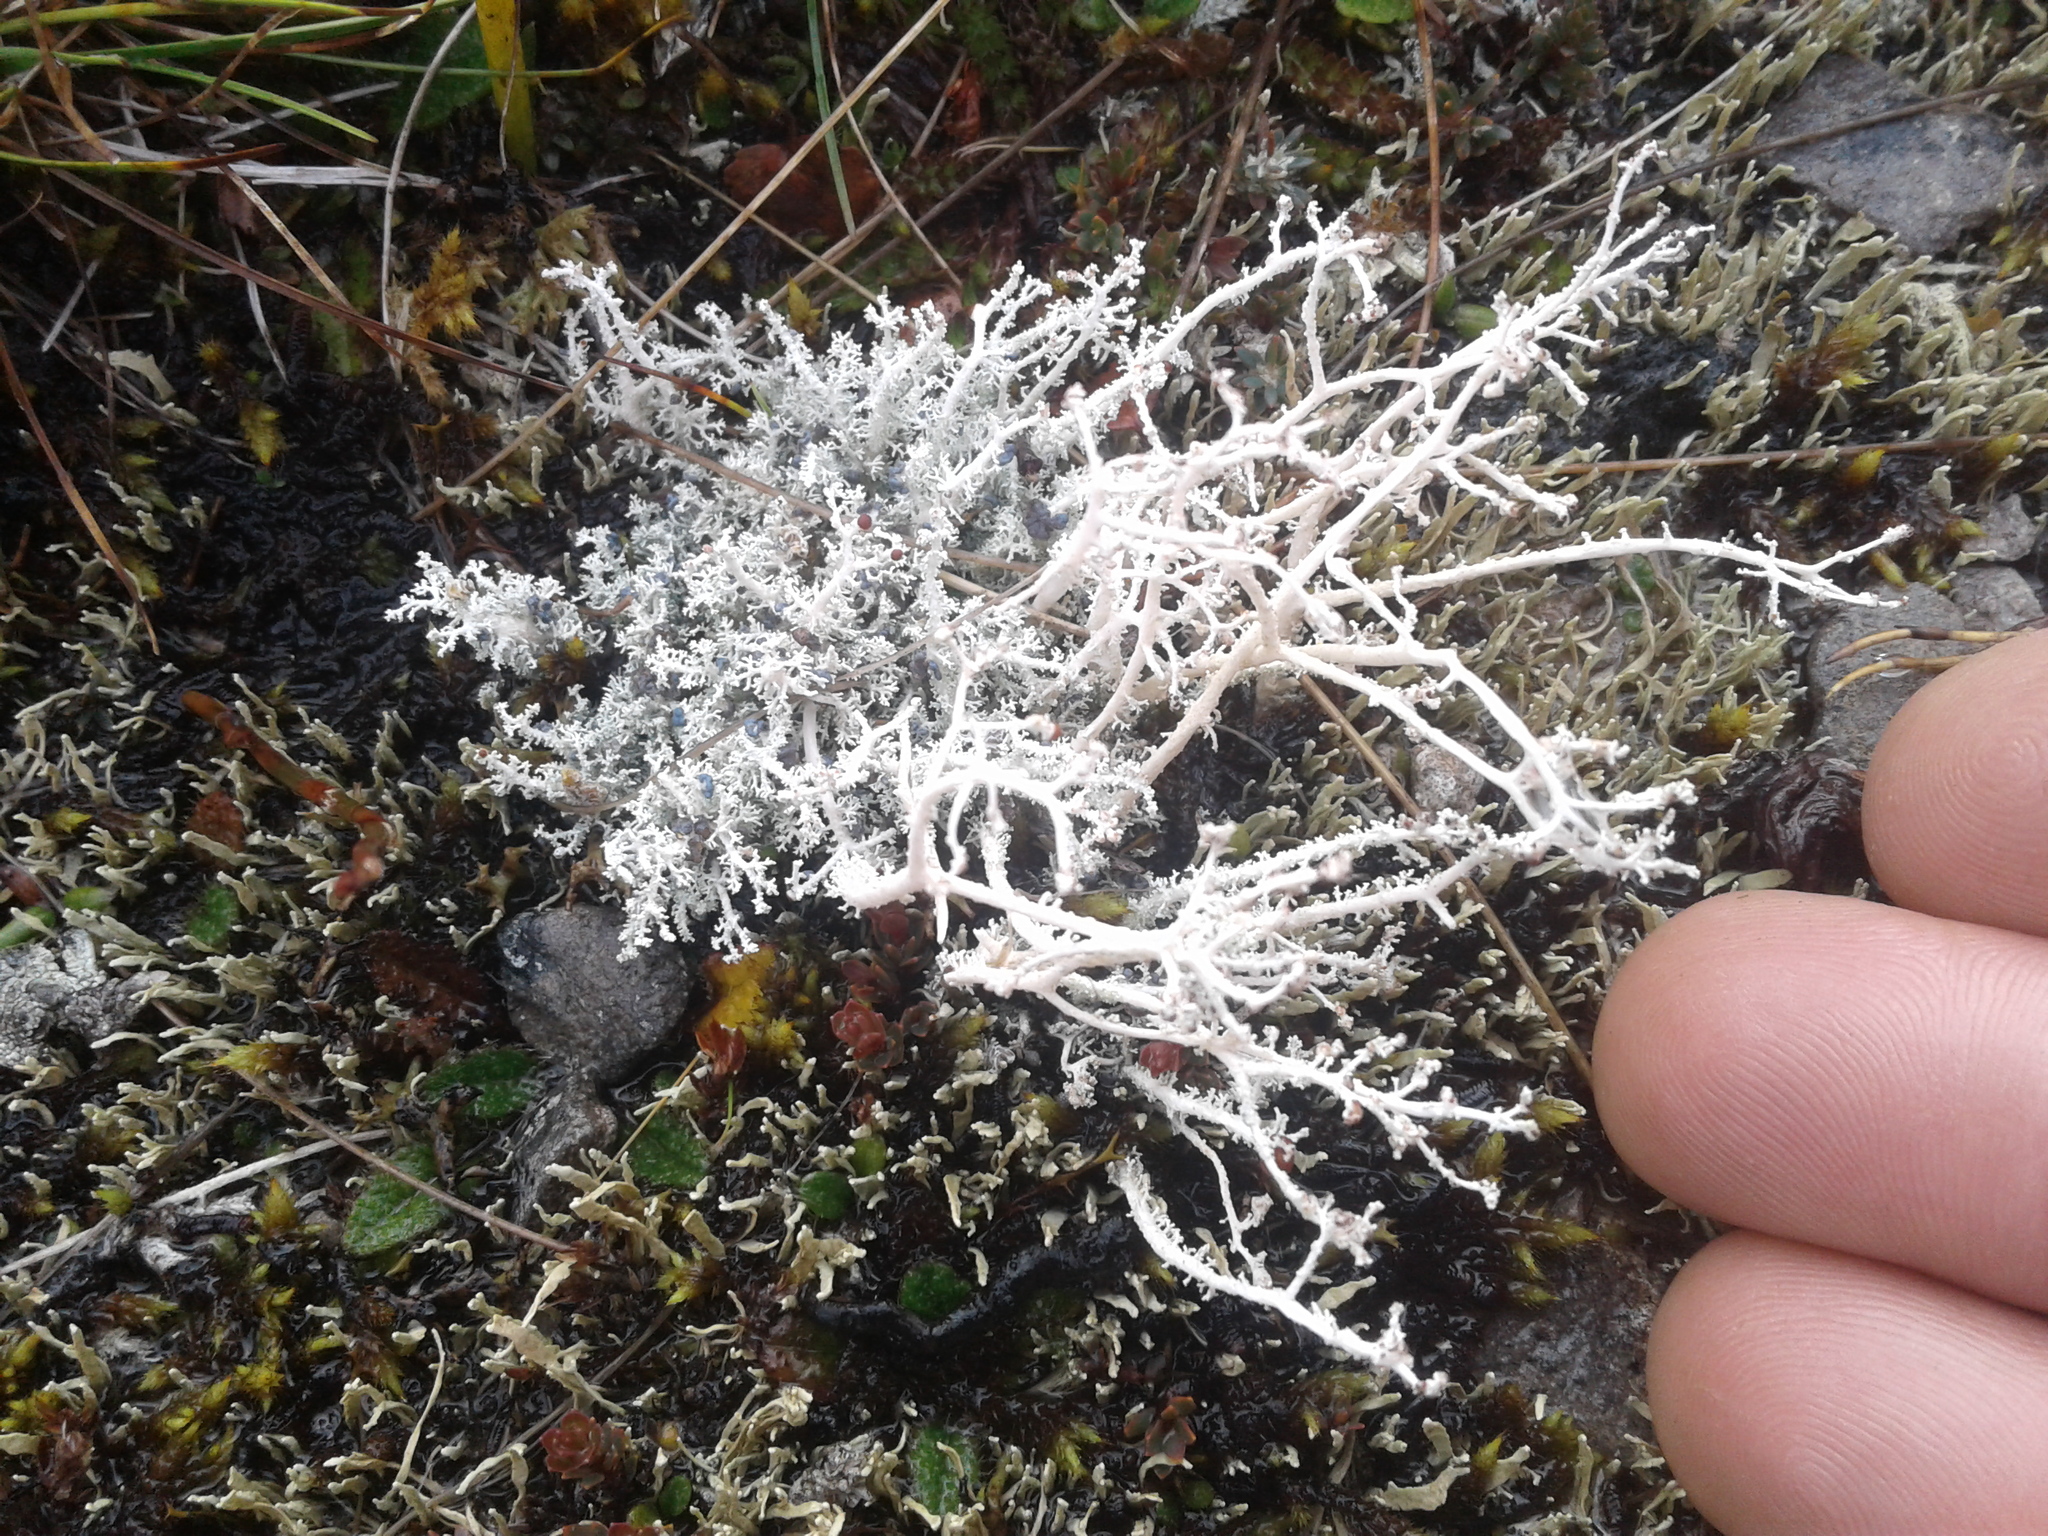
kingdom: Fungi
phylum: Ascomycota
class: Lecanoromycetes
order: Lecanorales
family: Stereocaulaceae
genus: Stereocaulon
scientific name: Stereocaulon ramulosum
